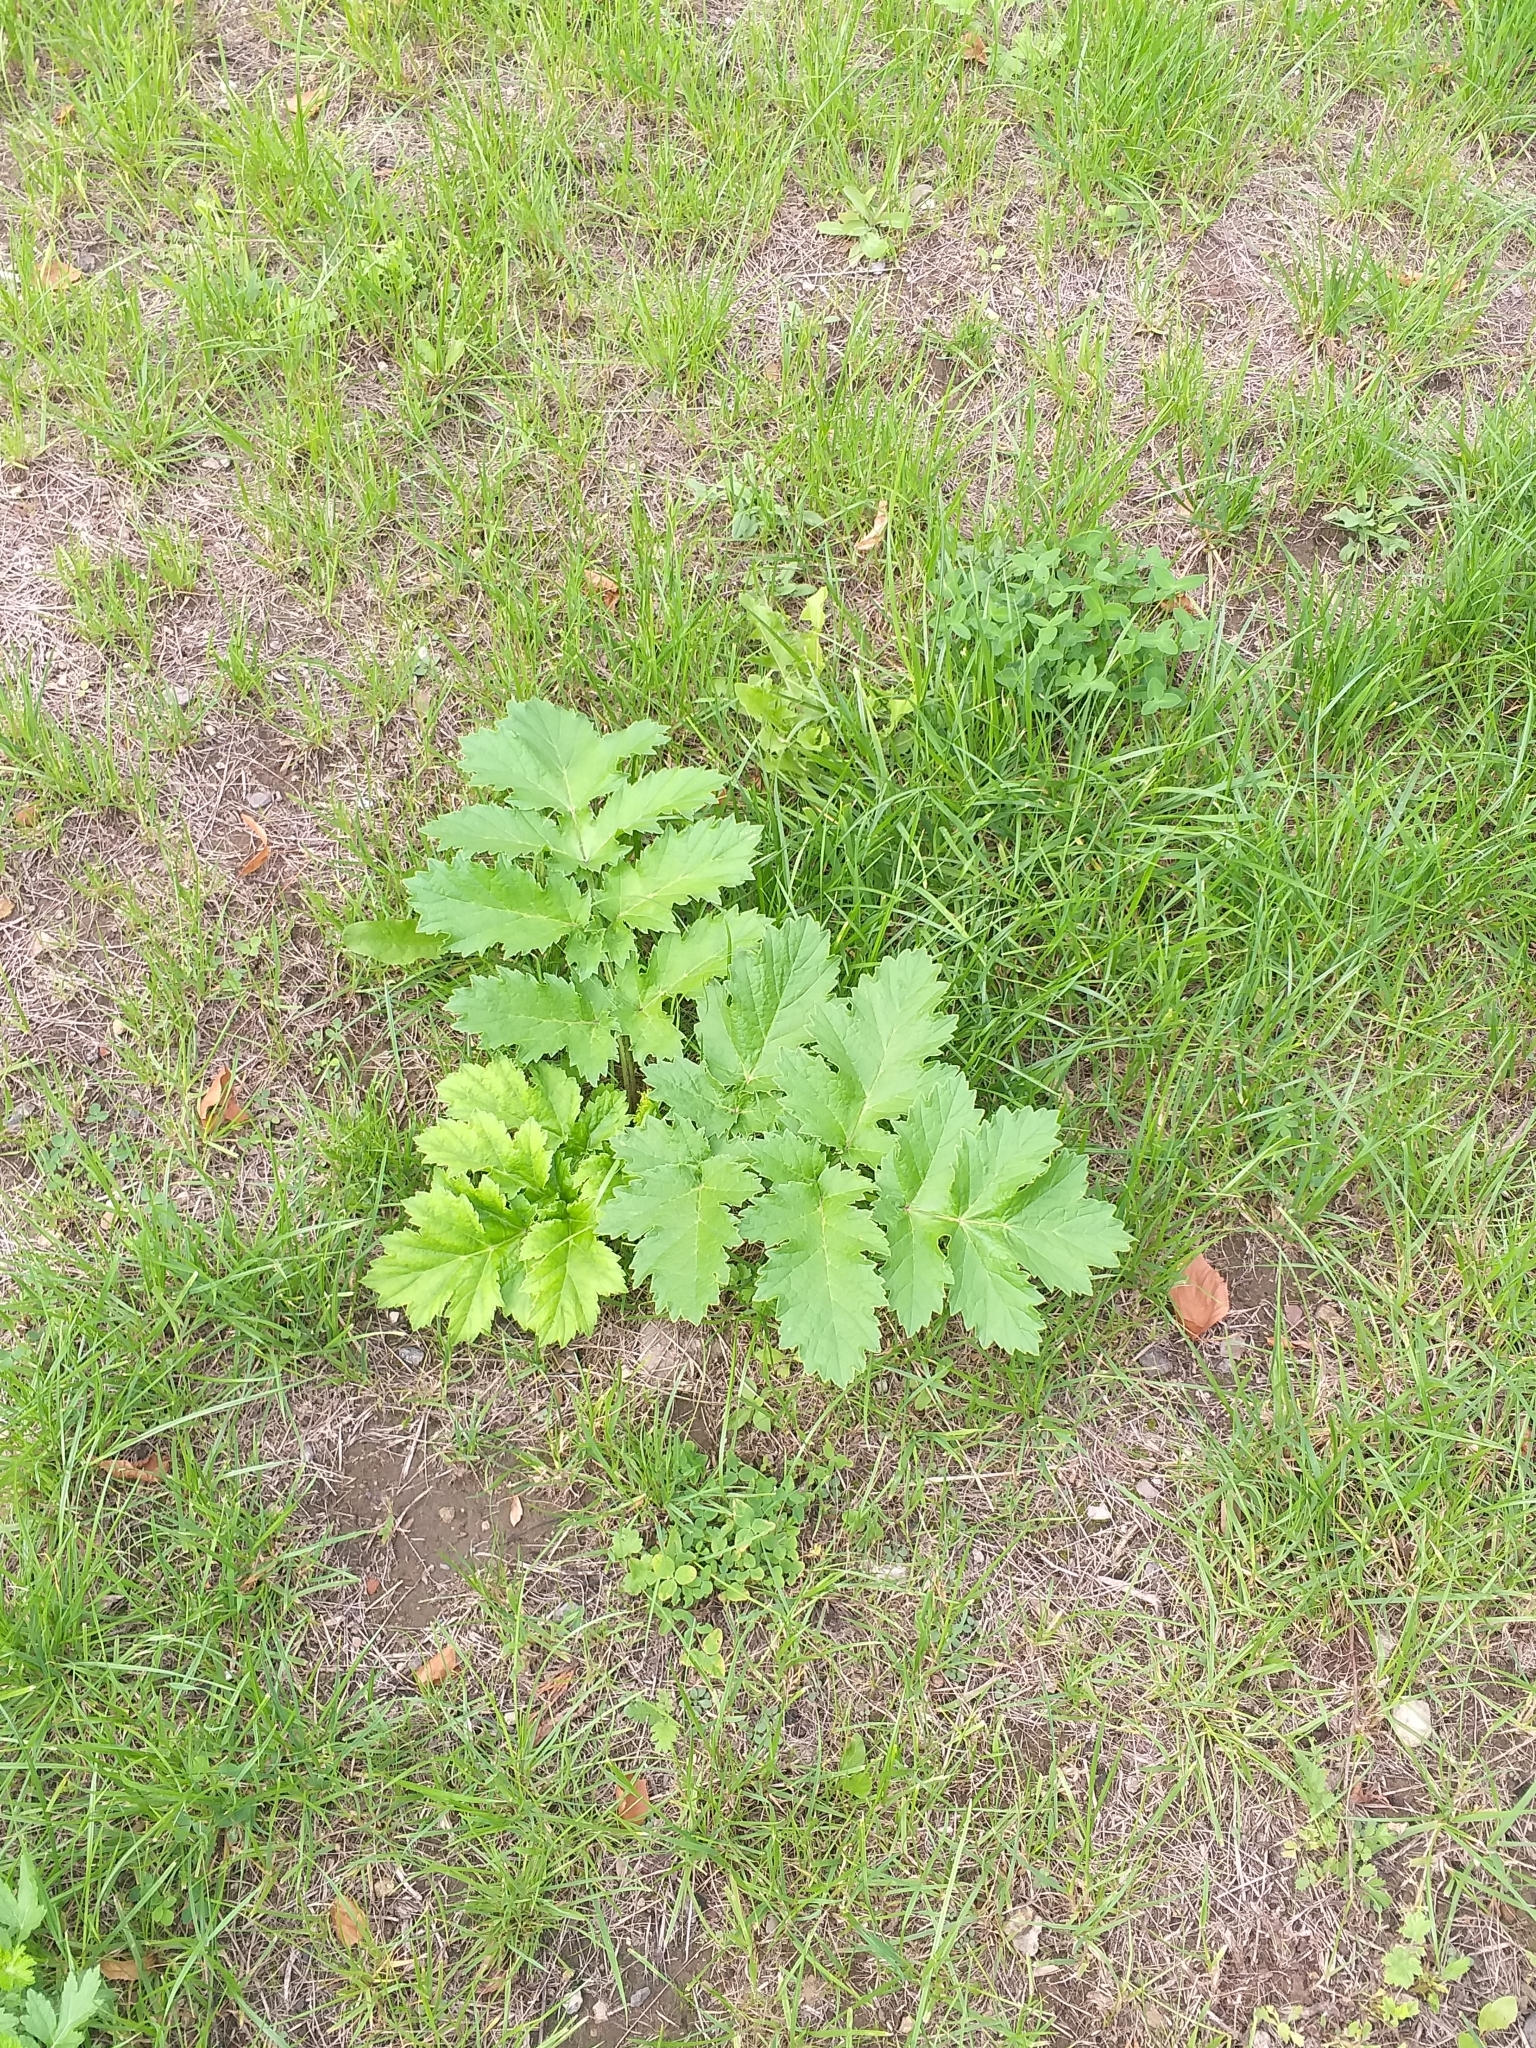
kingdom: Plantae
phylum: Tracheophyta
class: Magnoliopsida
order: Apiales
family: Apiaceae
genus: Heracleum
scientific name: Heracleum sosnowskyi
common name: Sosnowsky's hogweed
